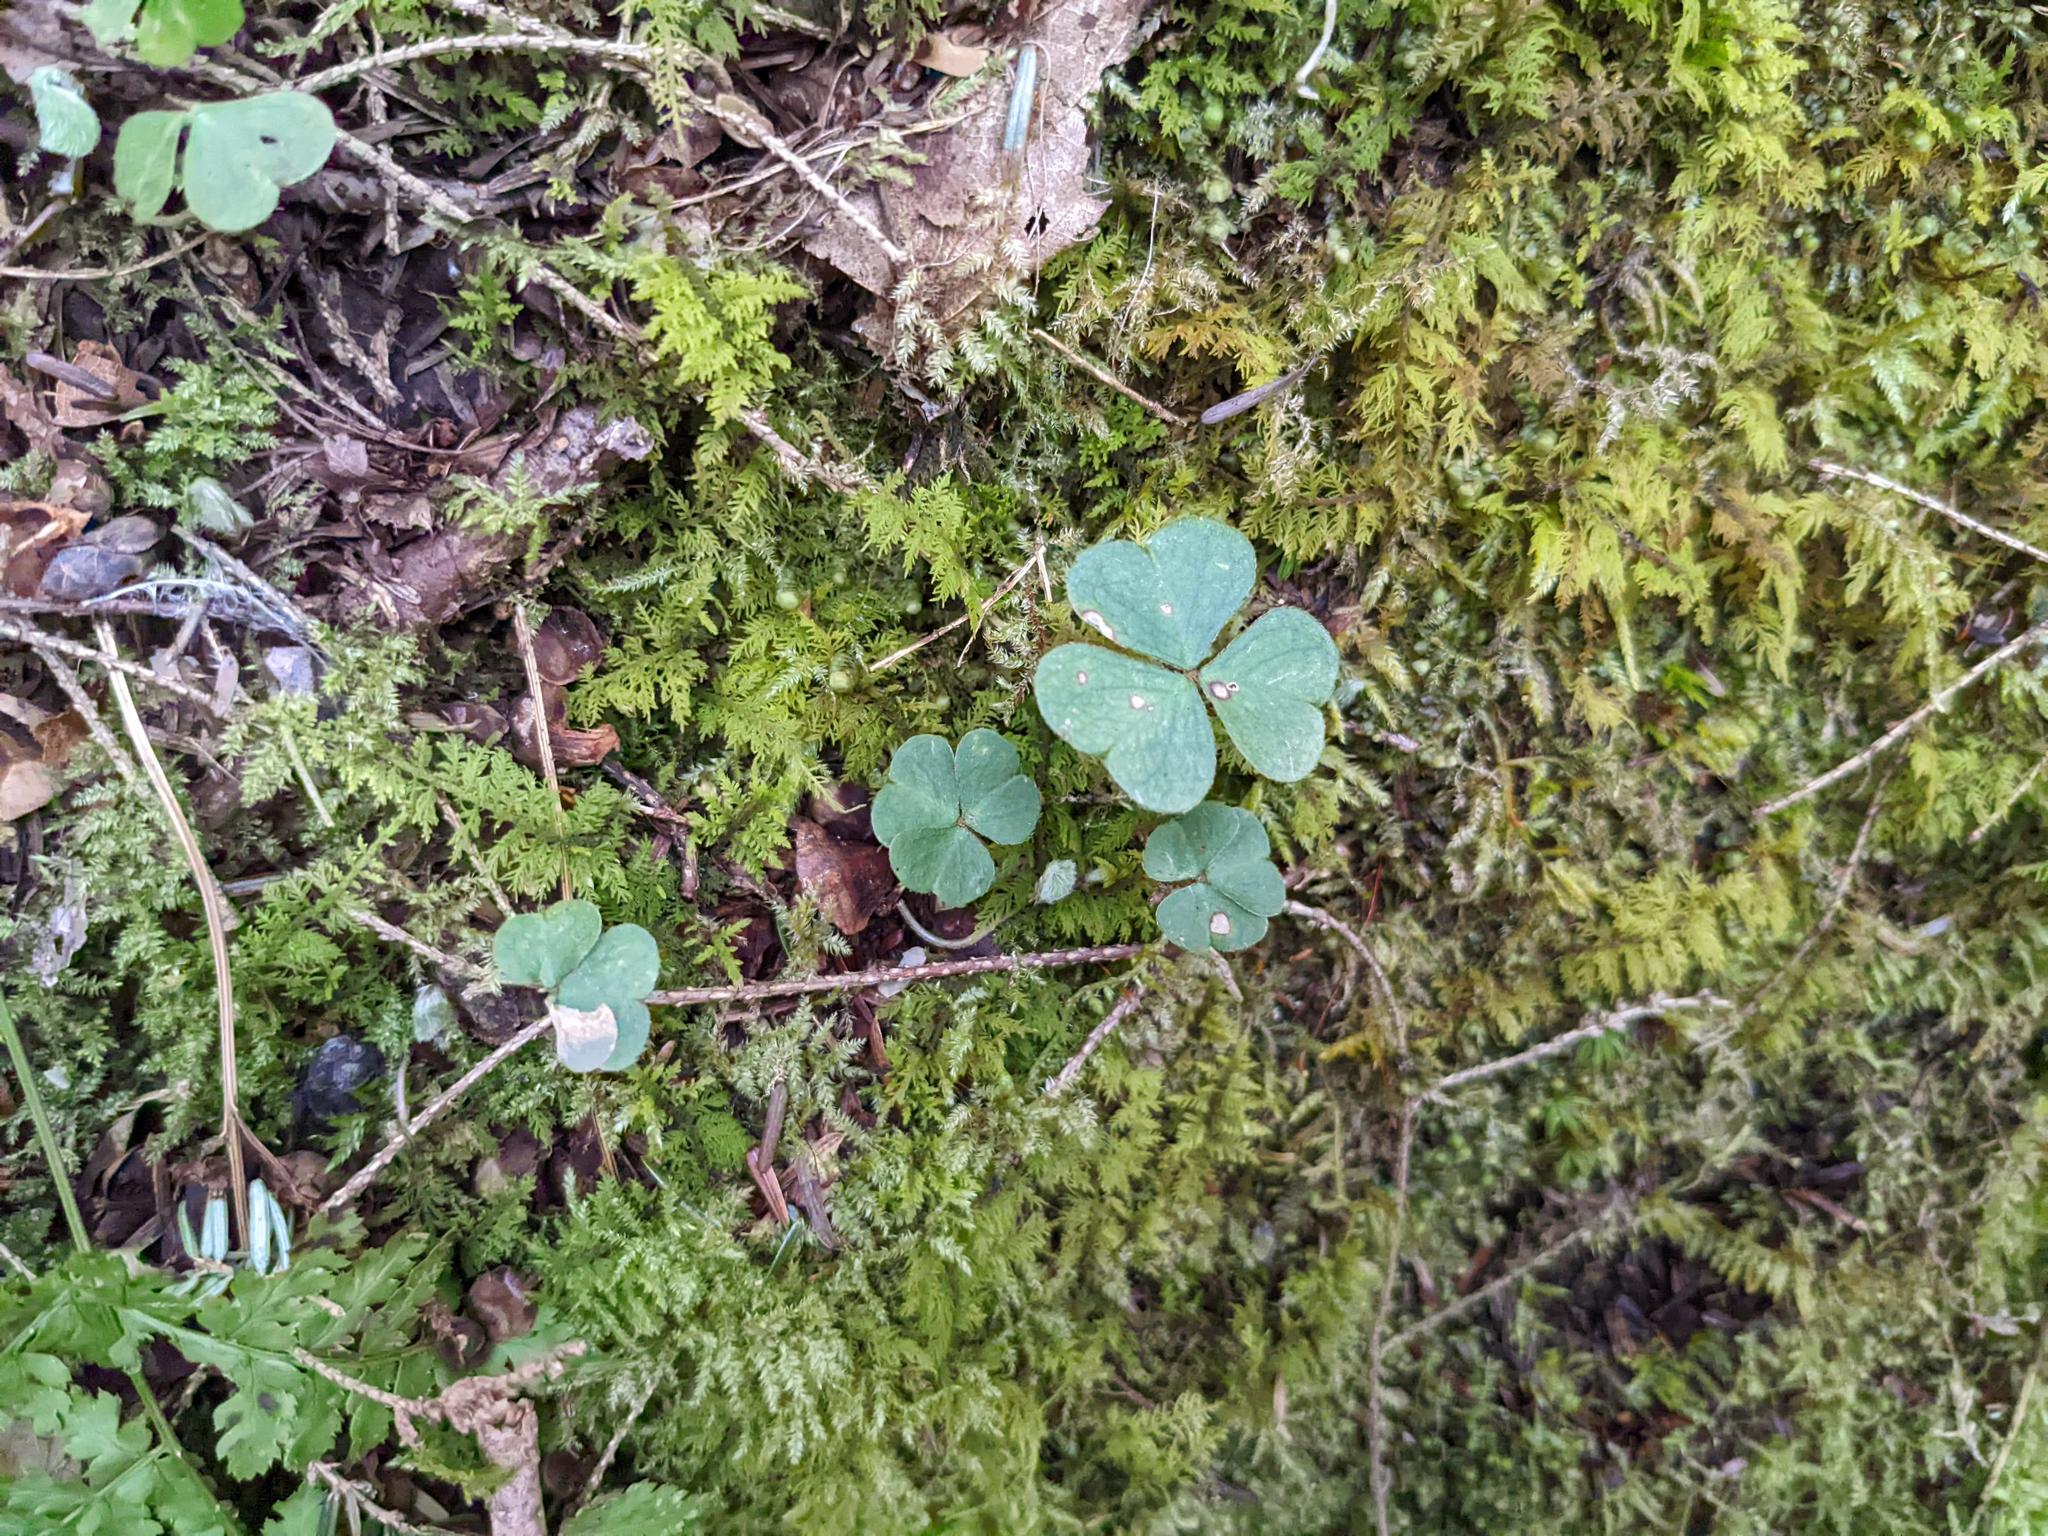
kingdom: Plantae
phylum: Tracheophyta
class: Magnoliopsida
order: Oxalidales
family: Oxalidaceae
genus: Oxalis
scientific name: Oxalis montana
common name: American wood-sorrel
